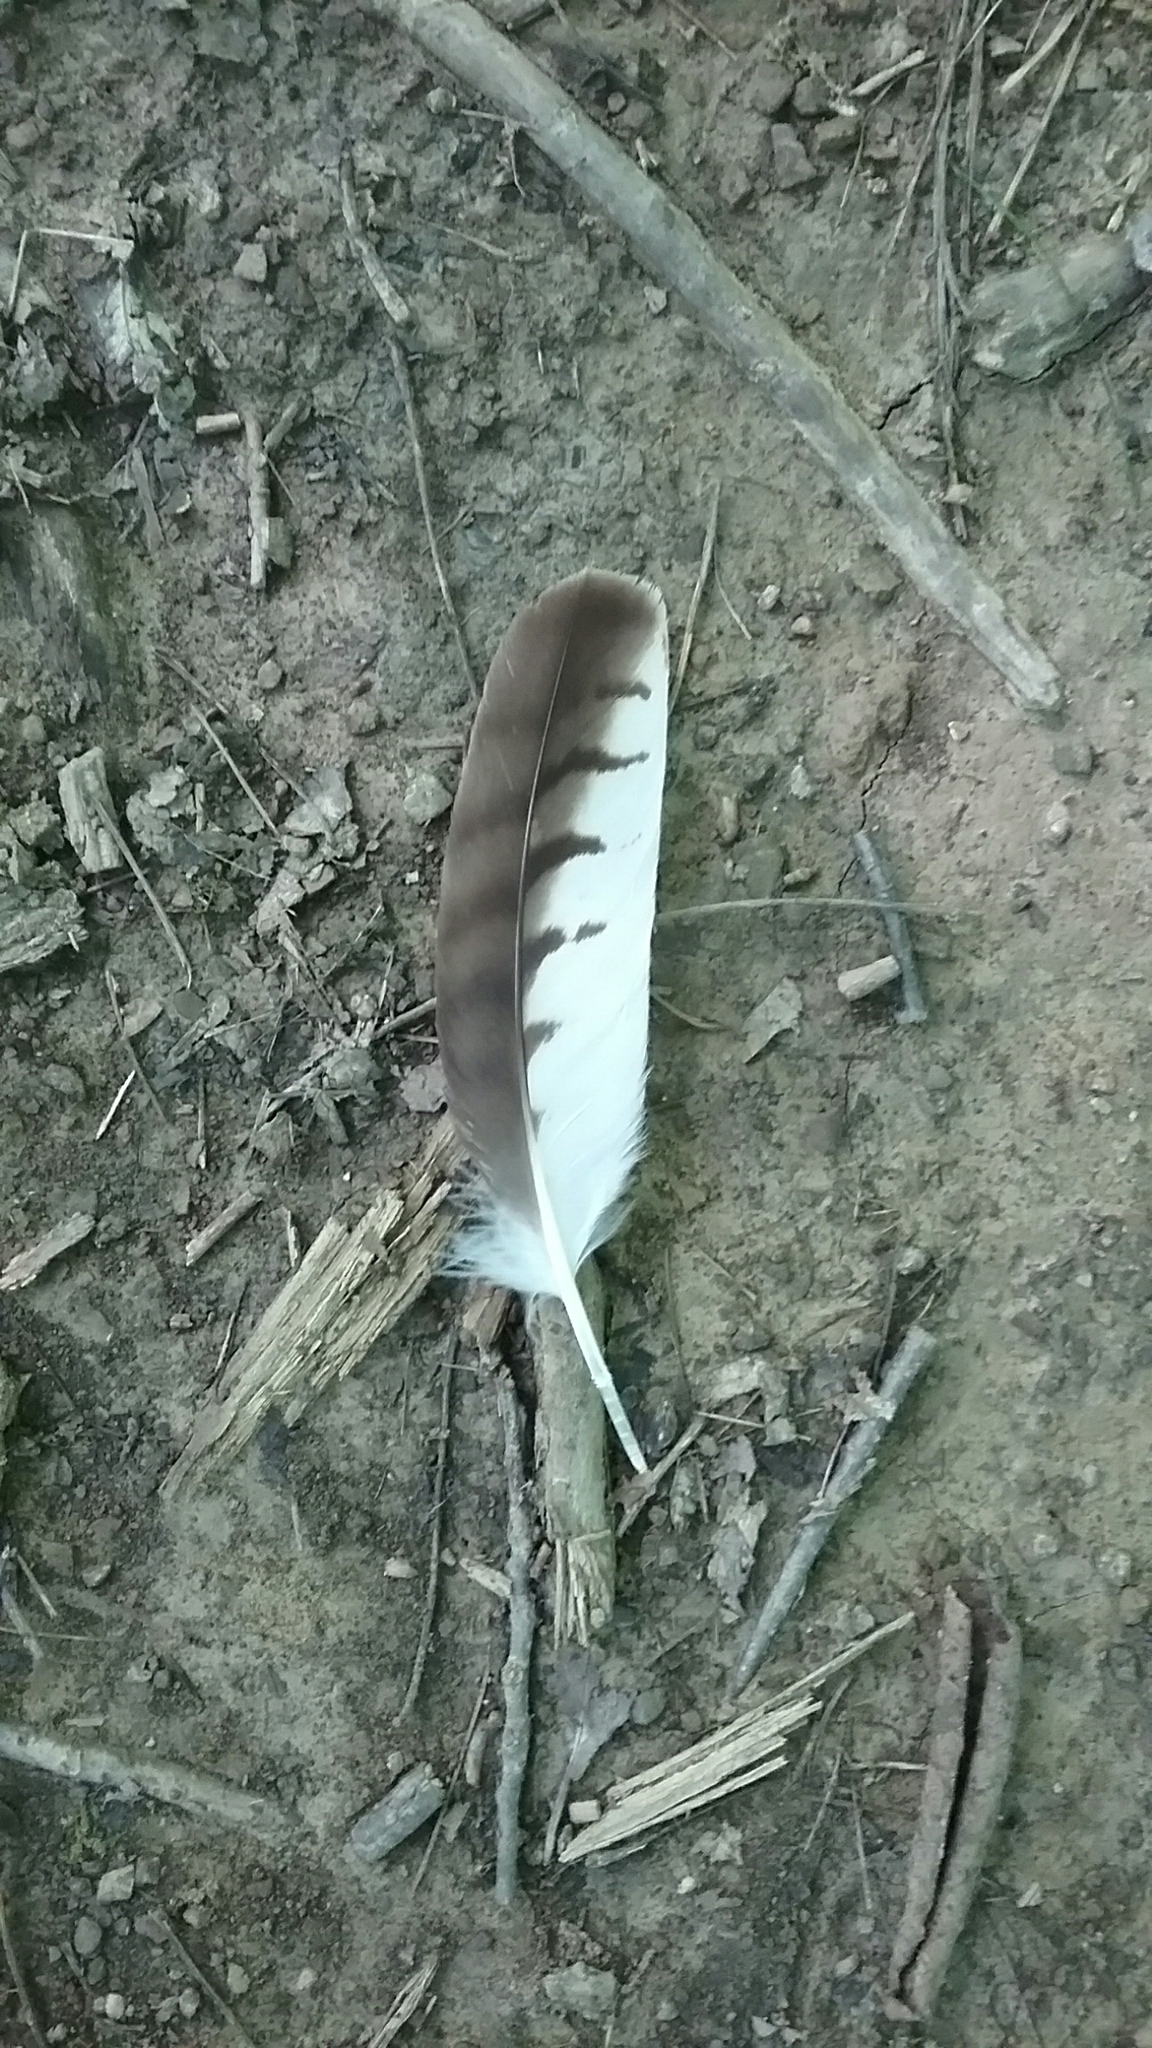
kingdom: Animalia
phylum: Chordata
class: Aves
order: Accipitriformes
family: Accipitridae
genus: Buteo
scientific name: Buteo platypterus
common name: Broad-winged hawk
